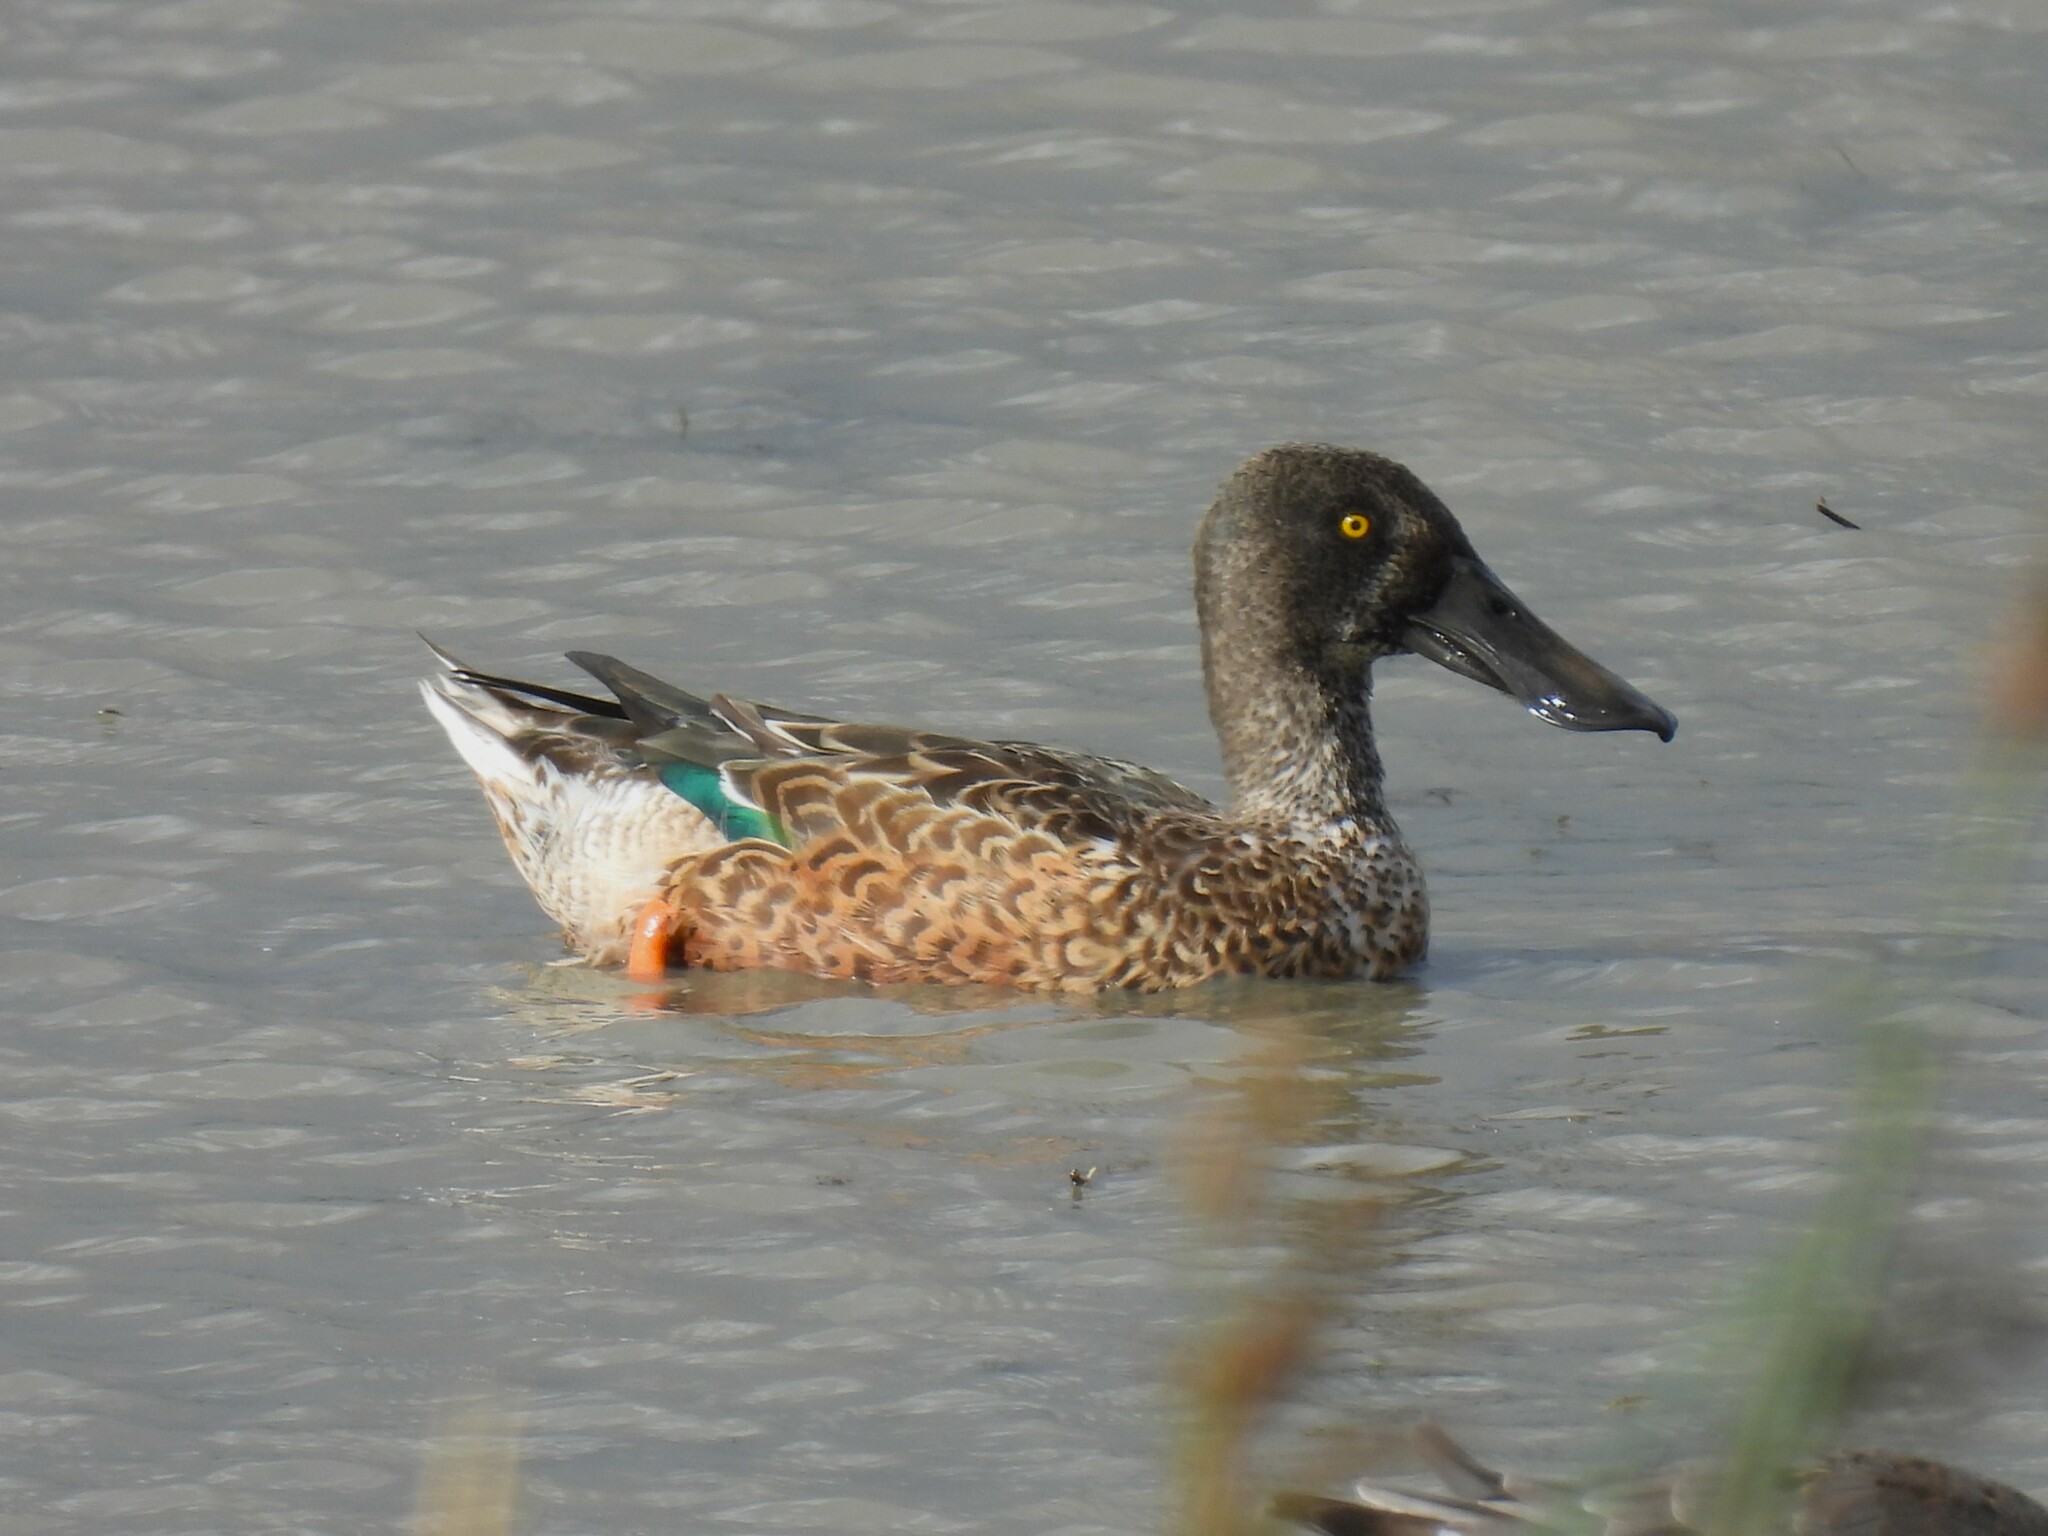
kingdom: Animalia
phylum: Chordata
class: Aves
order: Anseriformes
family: Anatidae
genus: Spatula
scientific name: Spatula clypeata
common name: Northern shoveler
